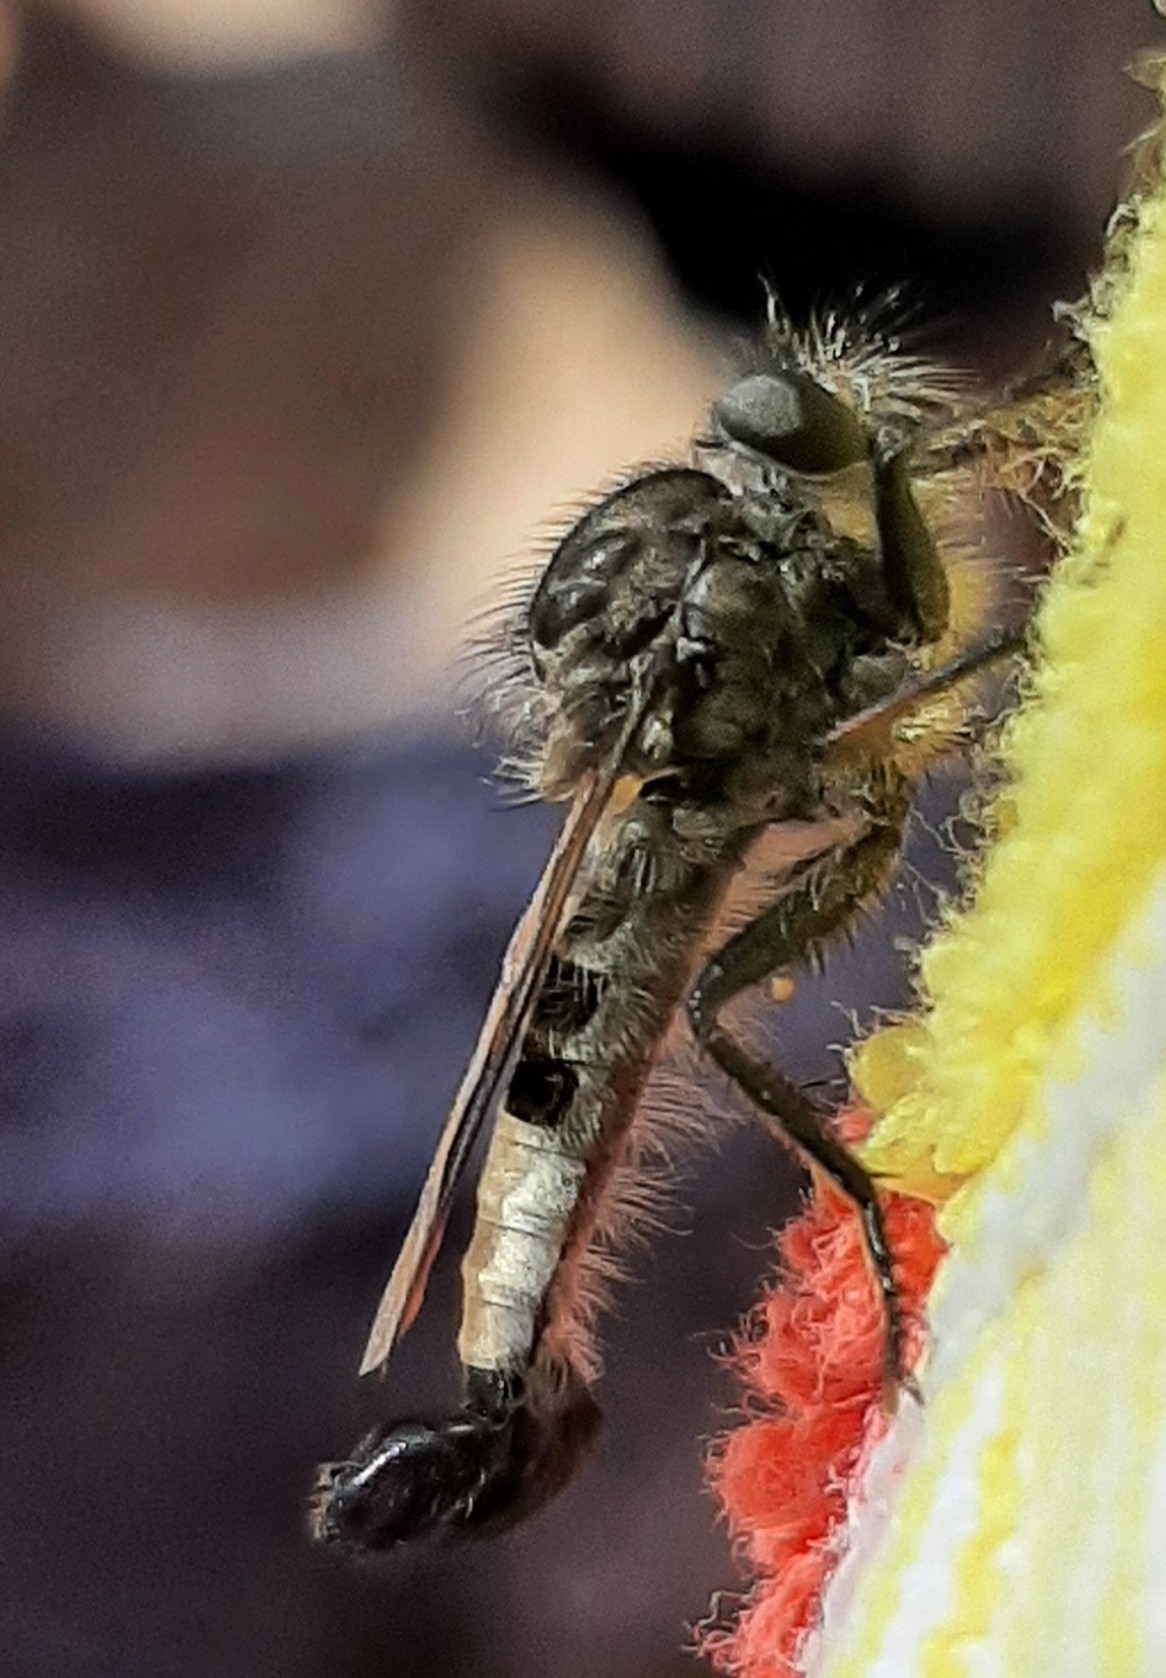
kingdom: Animalia
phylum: Arthropoda
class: Insecta
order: Diptera
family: Asilidae
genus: Efferia
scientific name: Efferia aestuans
